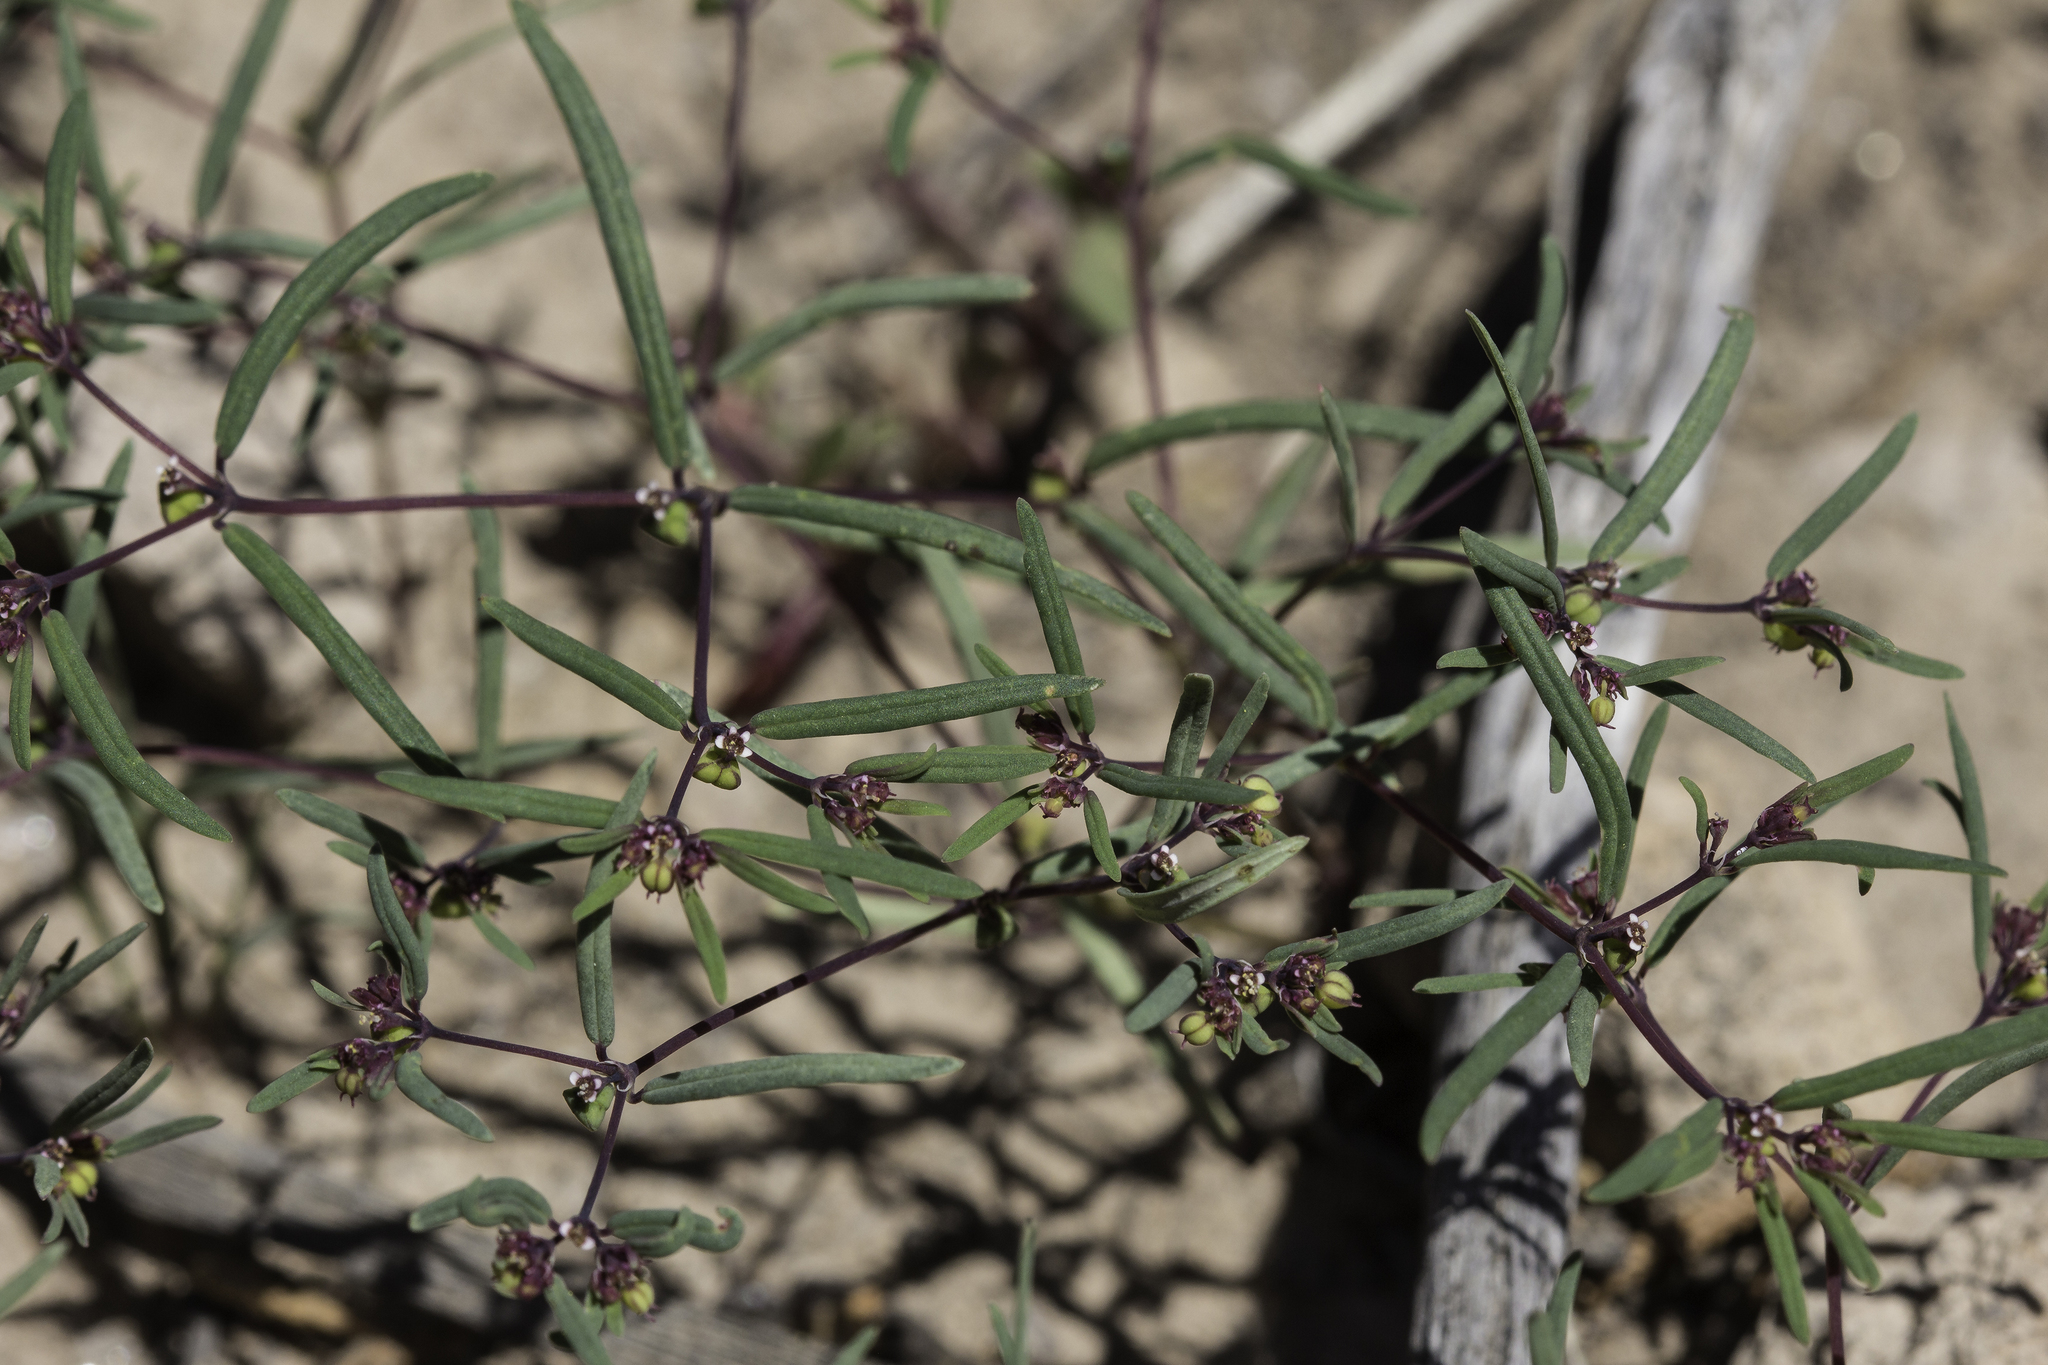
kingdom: Plantae
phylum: Tracheophyta
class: Magnoliopsida
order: Malpighiales
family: Euphorbiaceae
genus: Euphorbia
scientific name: Euphorbia revoluta
